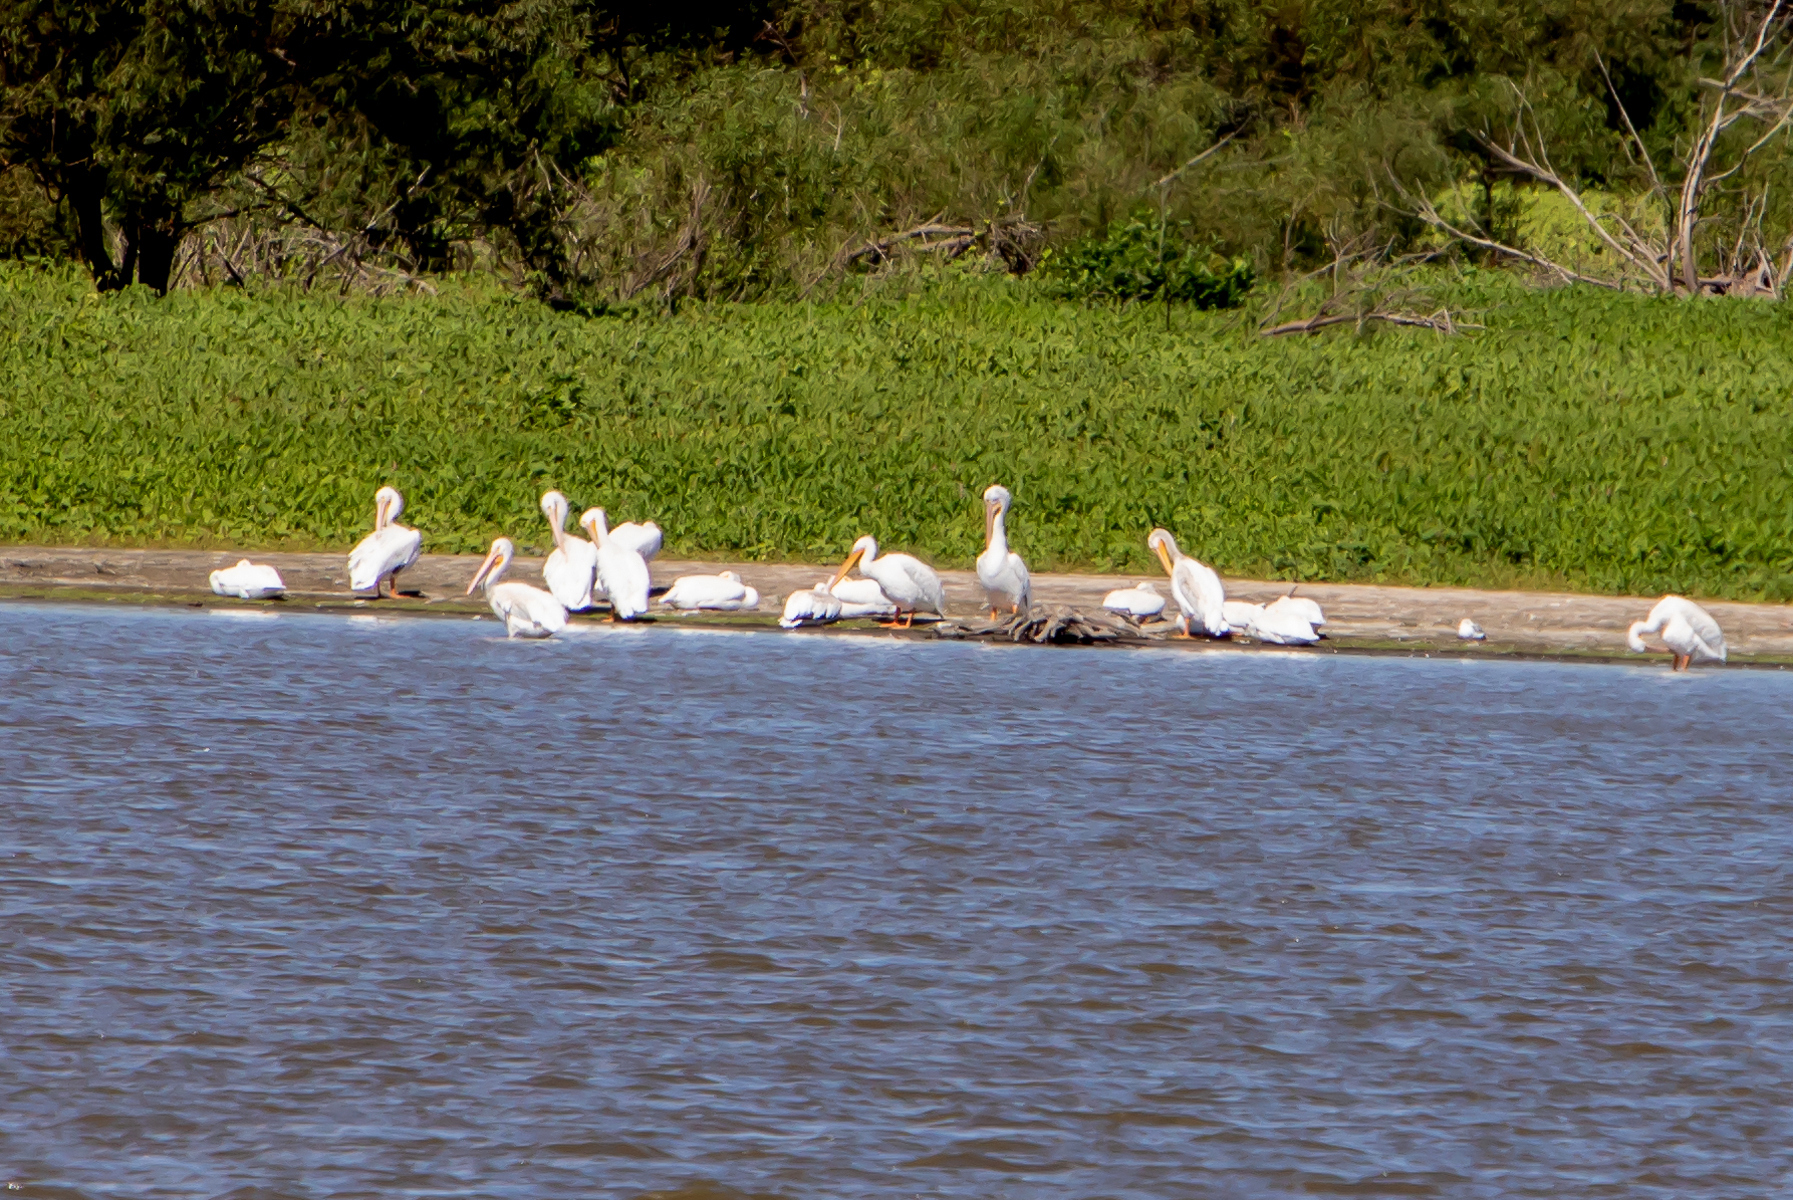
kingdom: Animalia
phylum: Chordata
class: Aves
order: Pelecaniformes
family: Pelecanidae
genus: Pelecanus
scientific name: Pelecanus erythrorhynchos
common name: American white pelican
